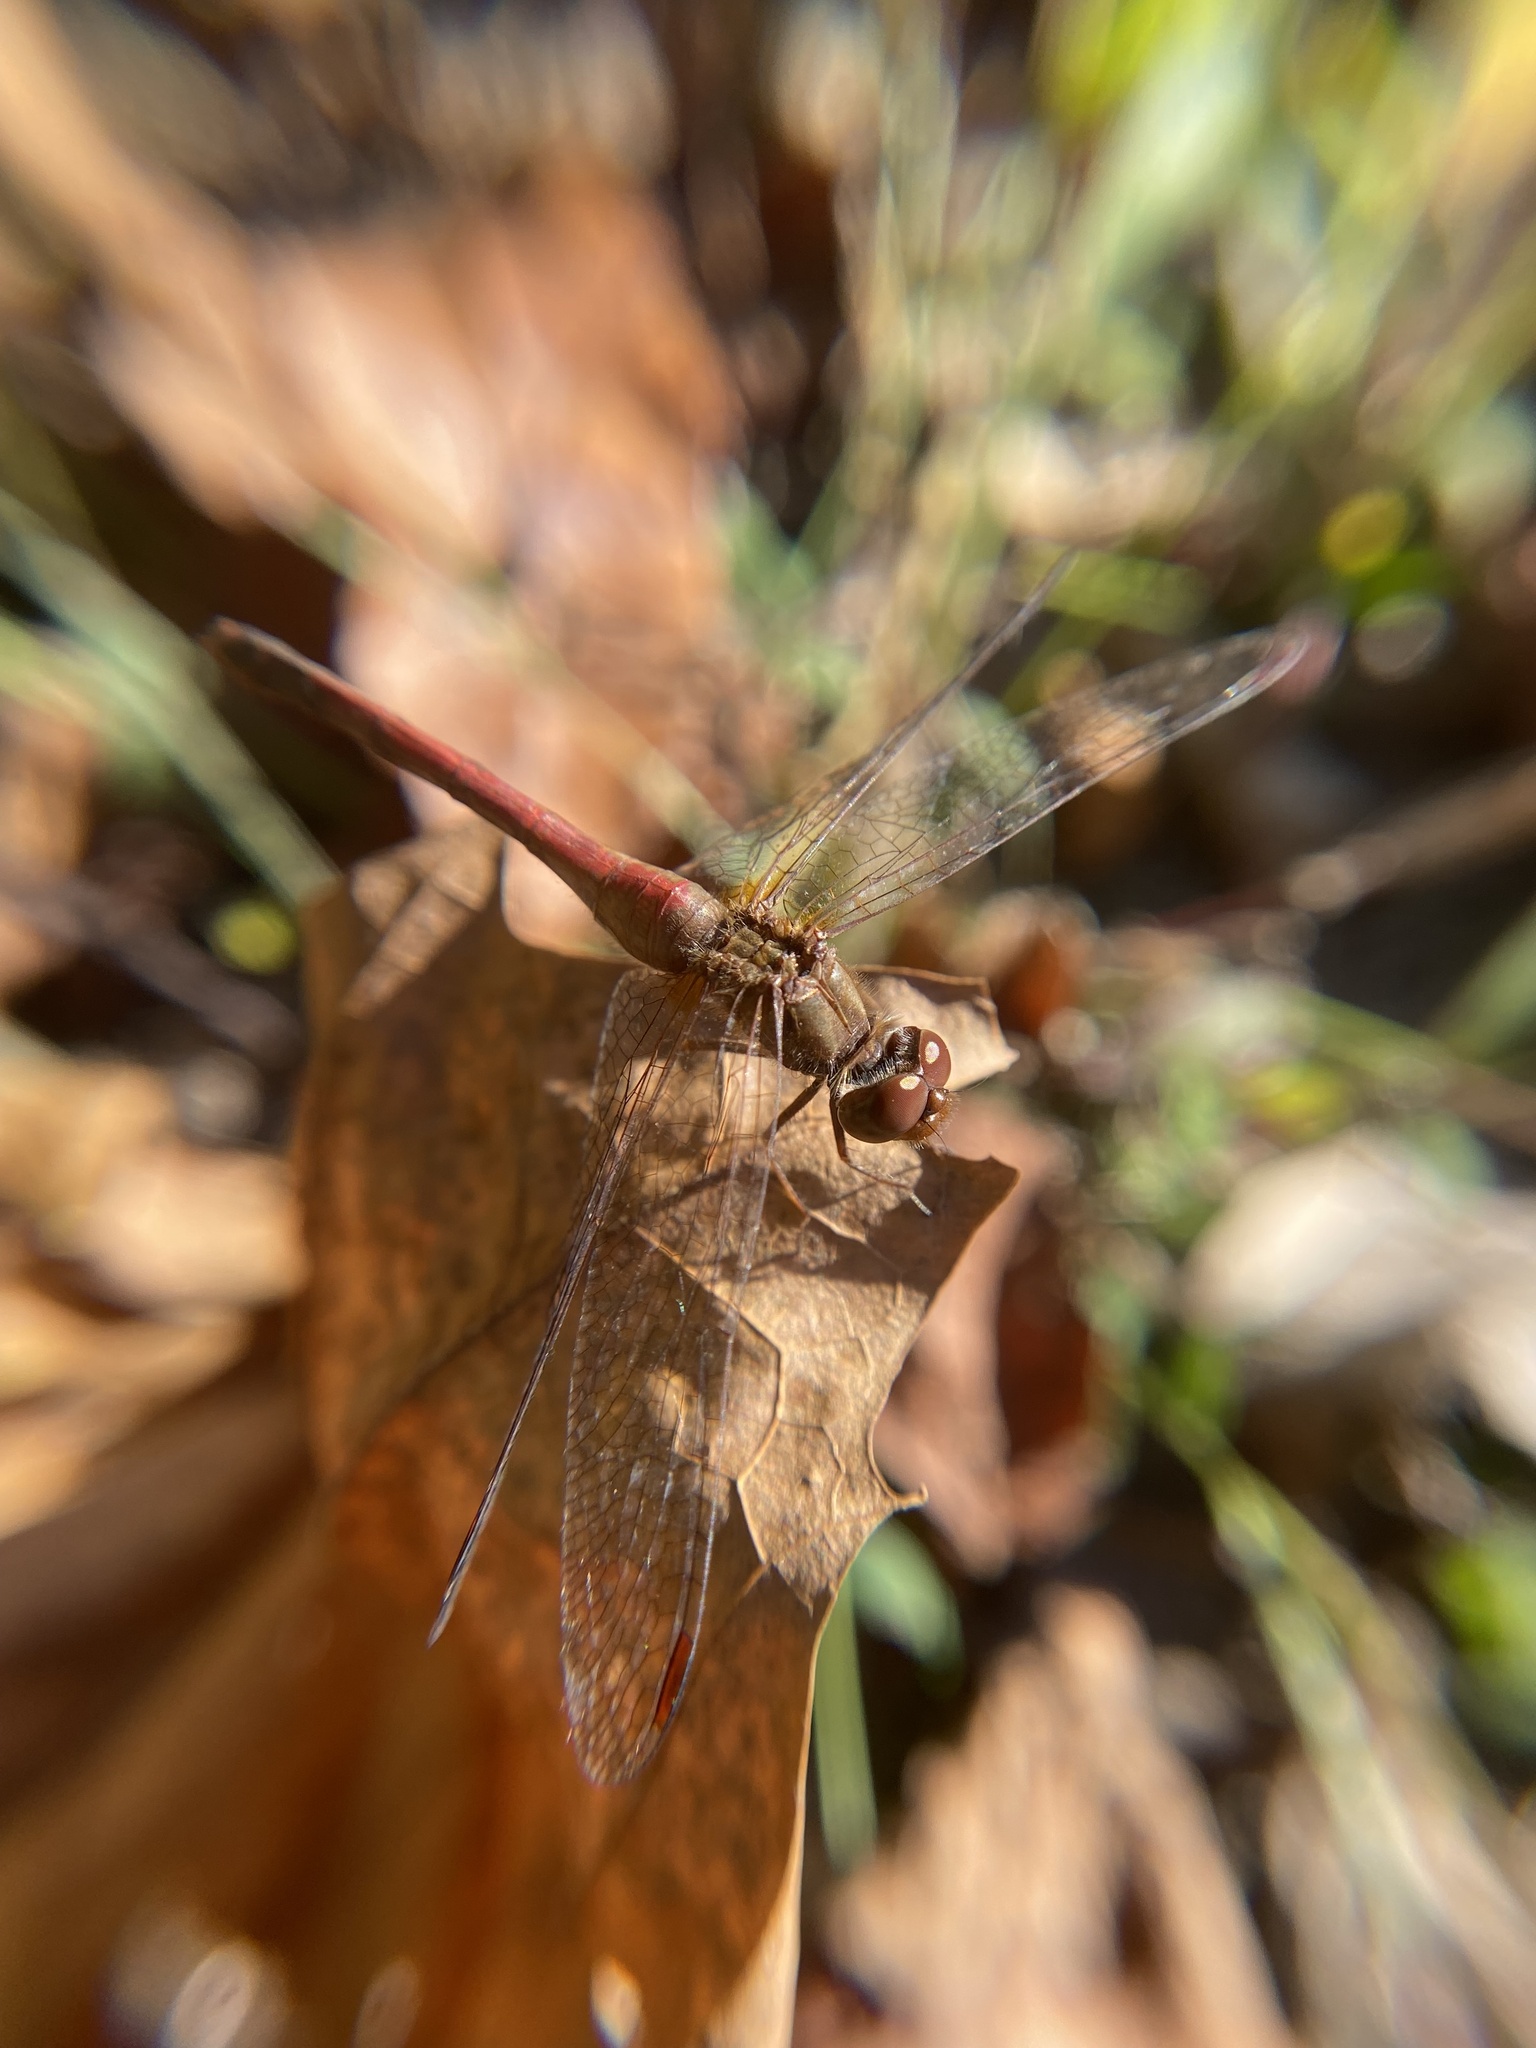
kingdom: Animalia
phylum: Arthropoda
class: Insecta
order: Odonata
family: Libellulidae
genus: Sympetrum
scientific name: Sympetrum vicinum
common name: Autumn meadowhawk
